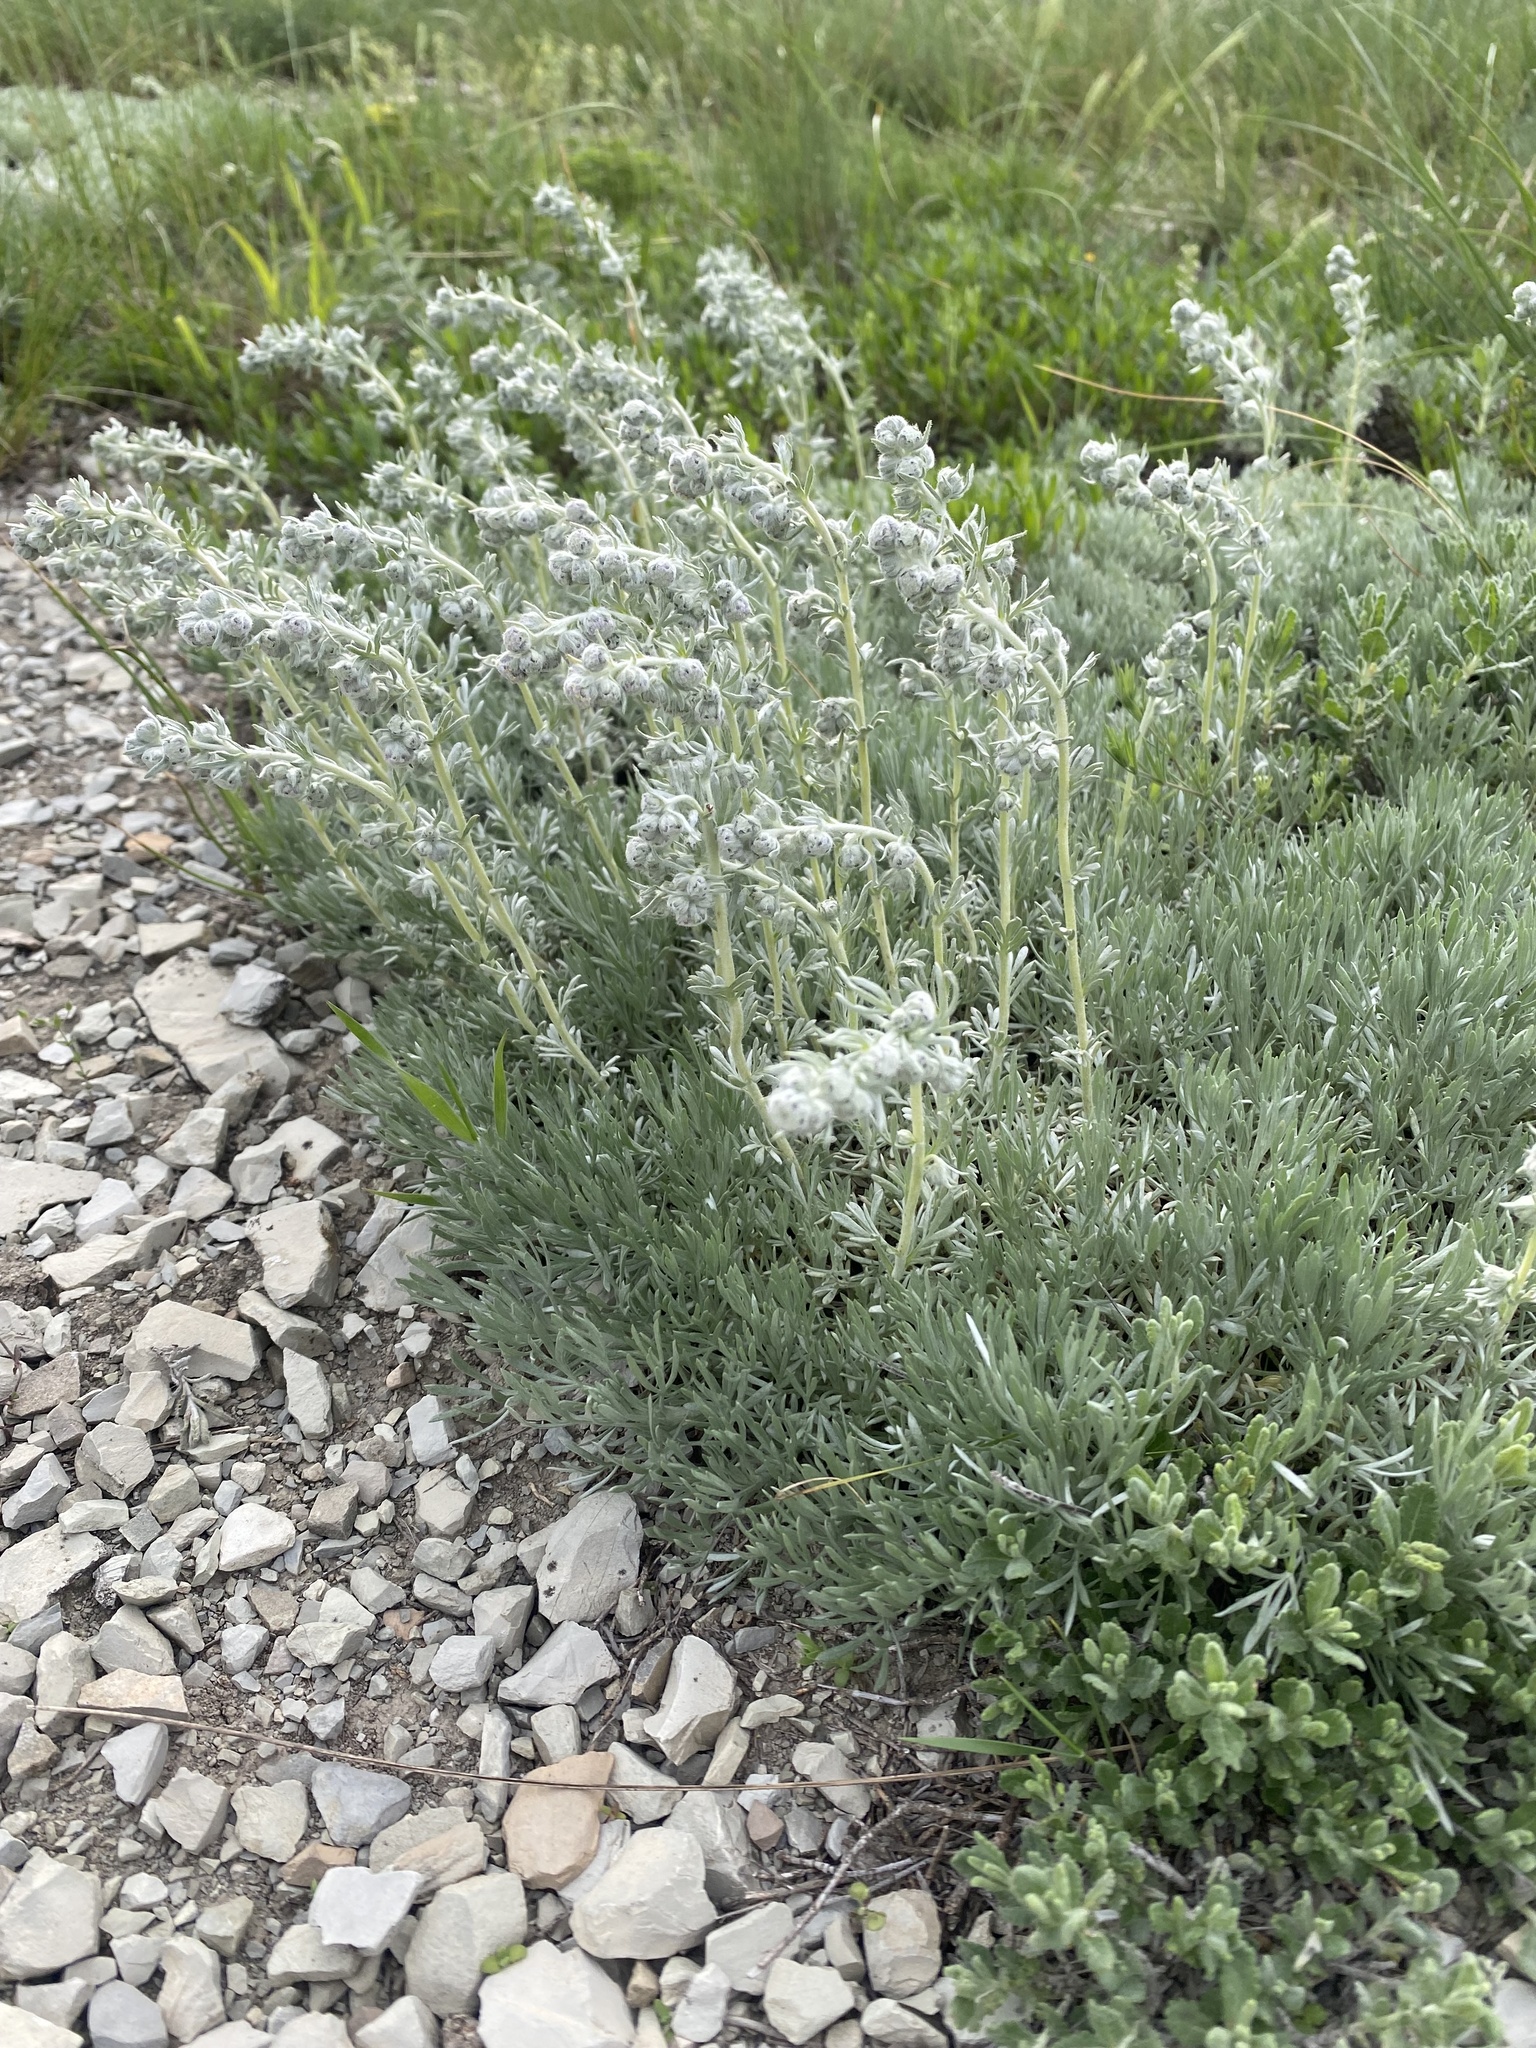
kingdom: Plantae
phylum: Tracheophyta
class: Magnoliopsida
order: Asterales
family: Asteraceae
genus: Artemisia
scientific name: Artemisia alpina
